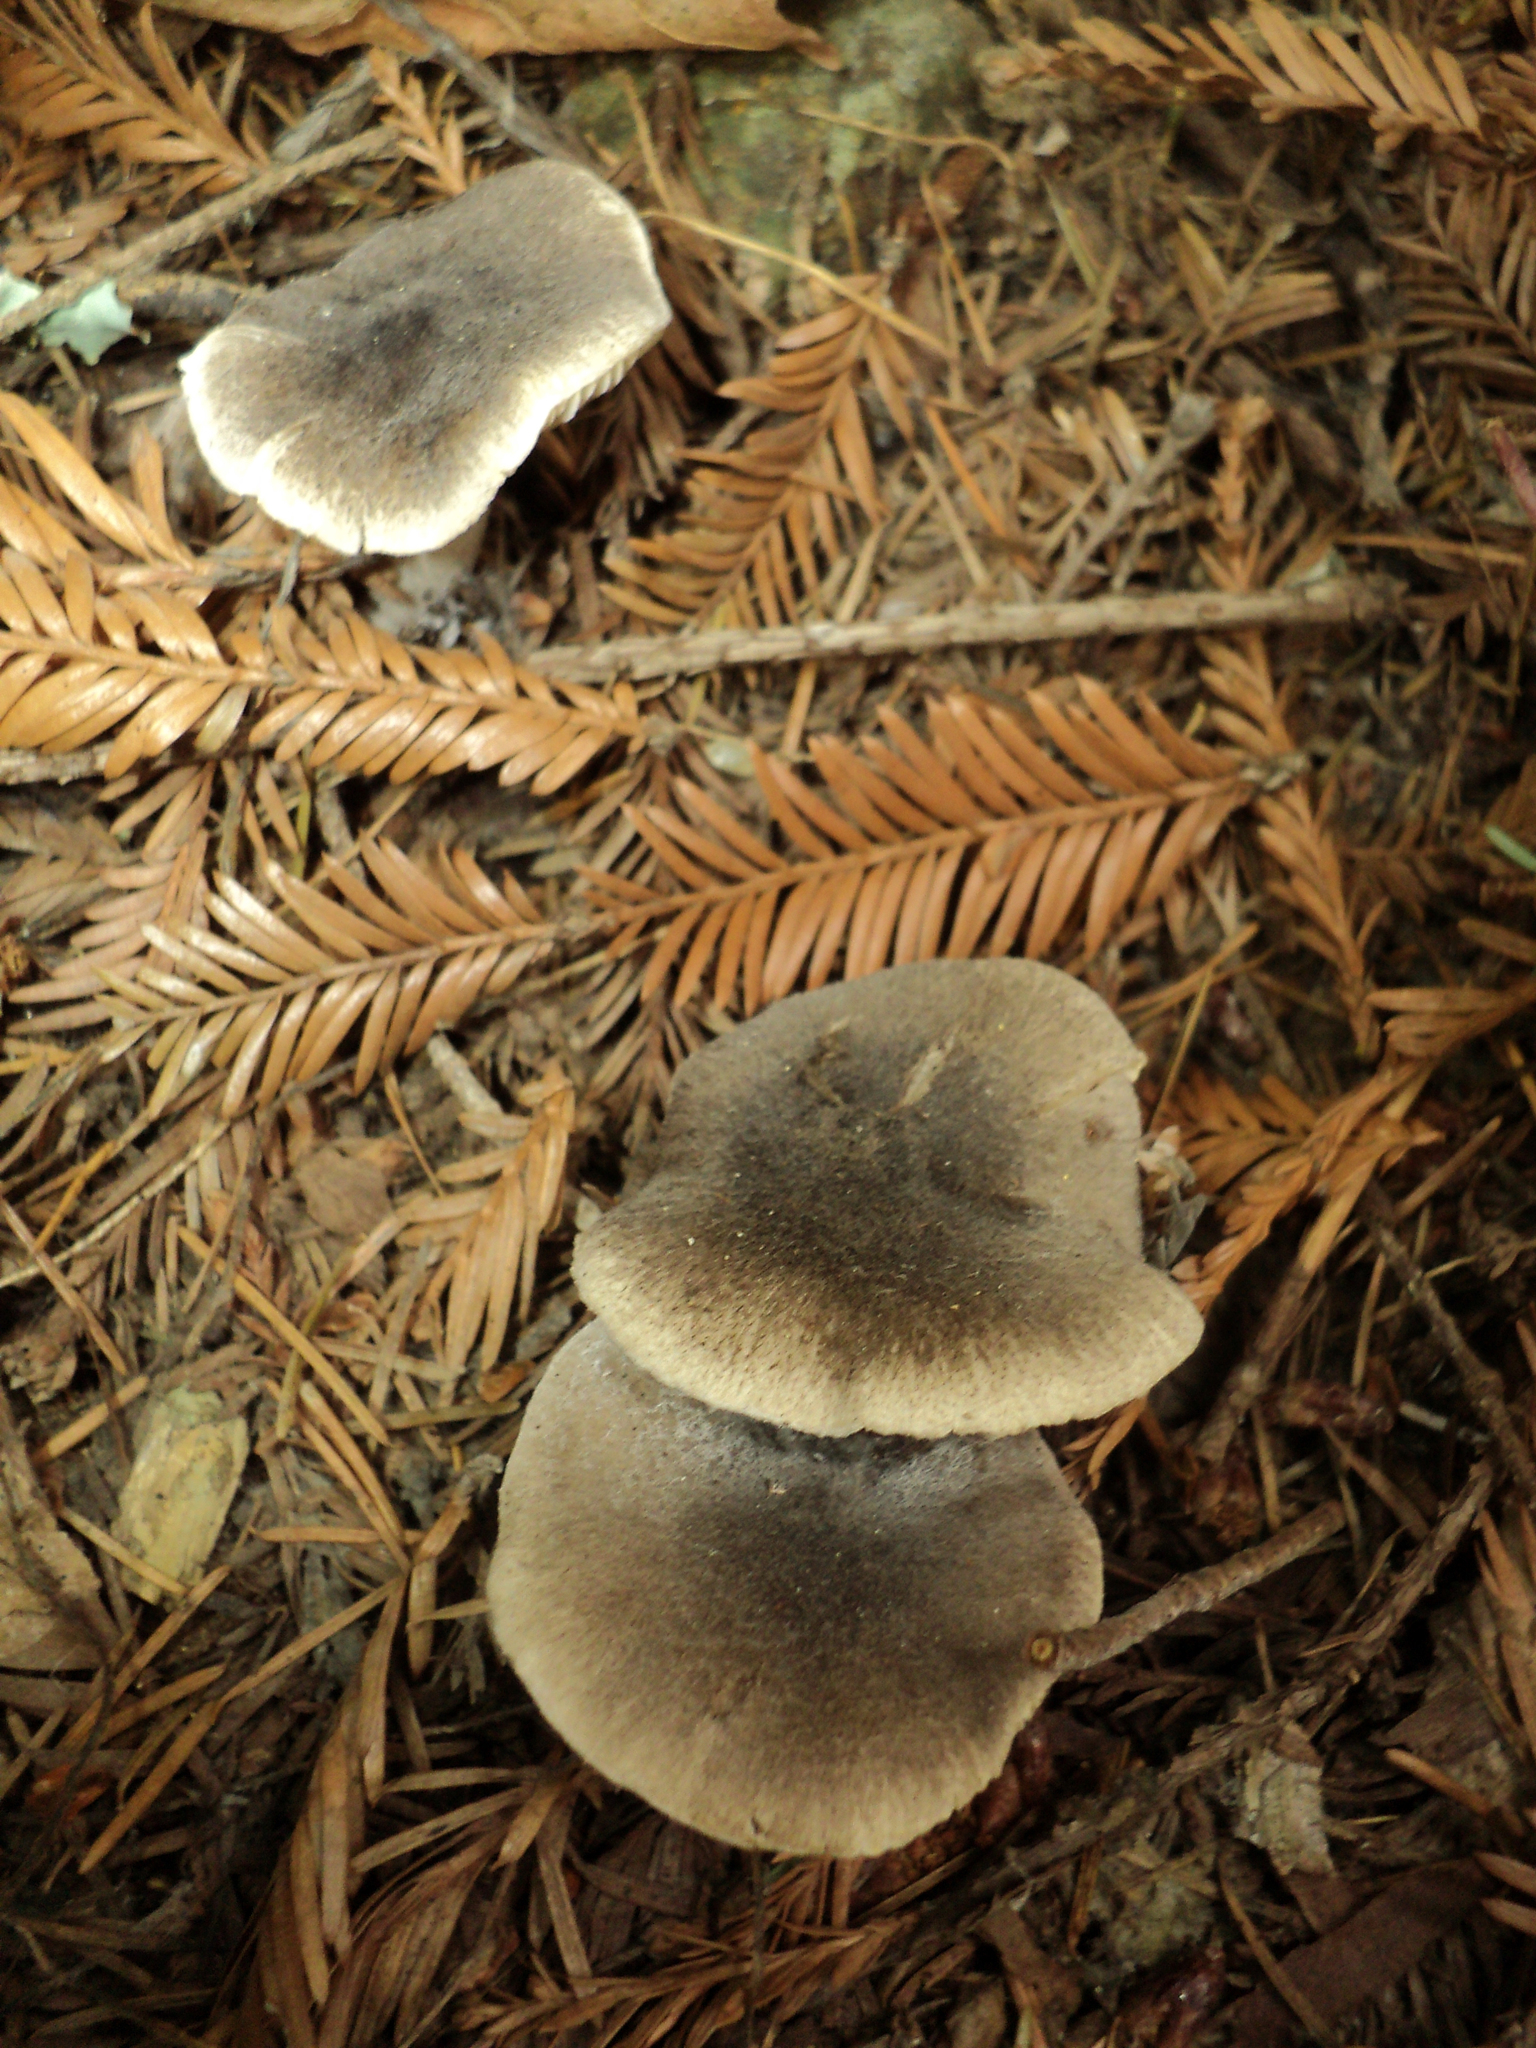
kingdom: Fungi
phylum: Basidiomycota
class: Agaricomycetes
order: Agaricales
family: Tricholomataceae
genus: Tricholoma
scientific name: Tricholoma terreum
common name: Grey knight
